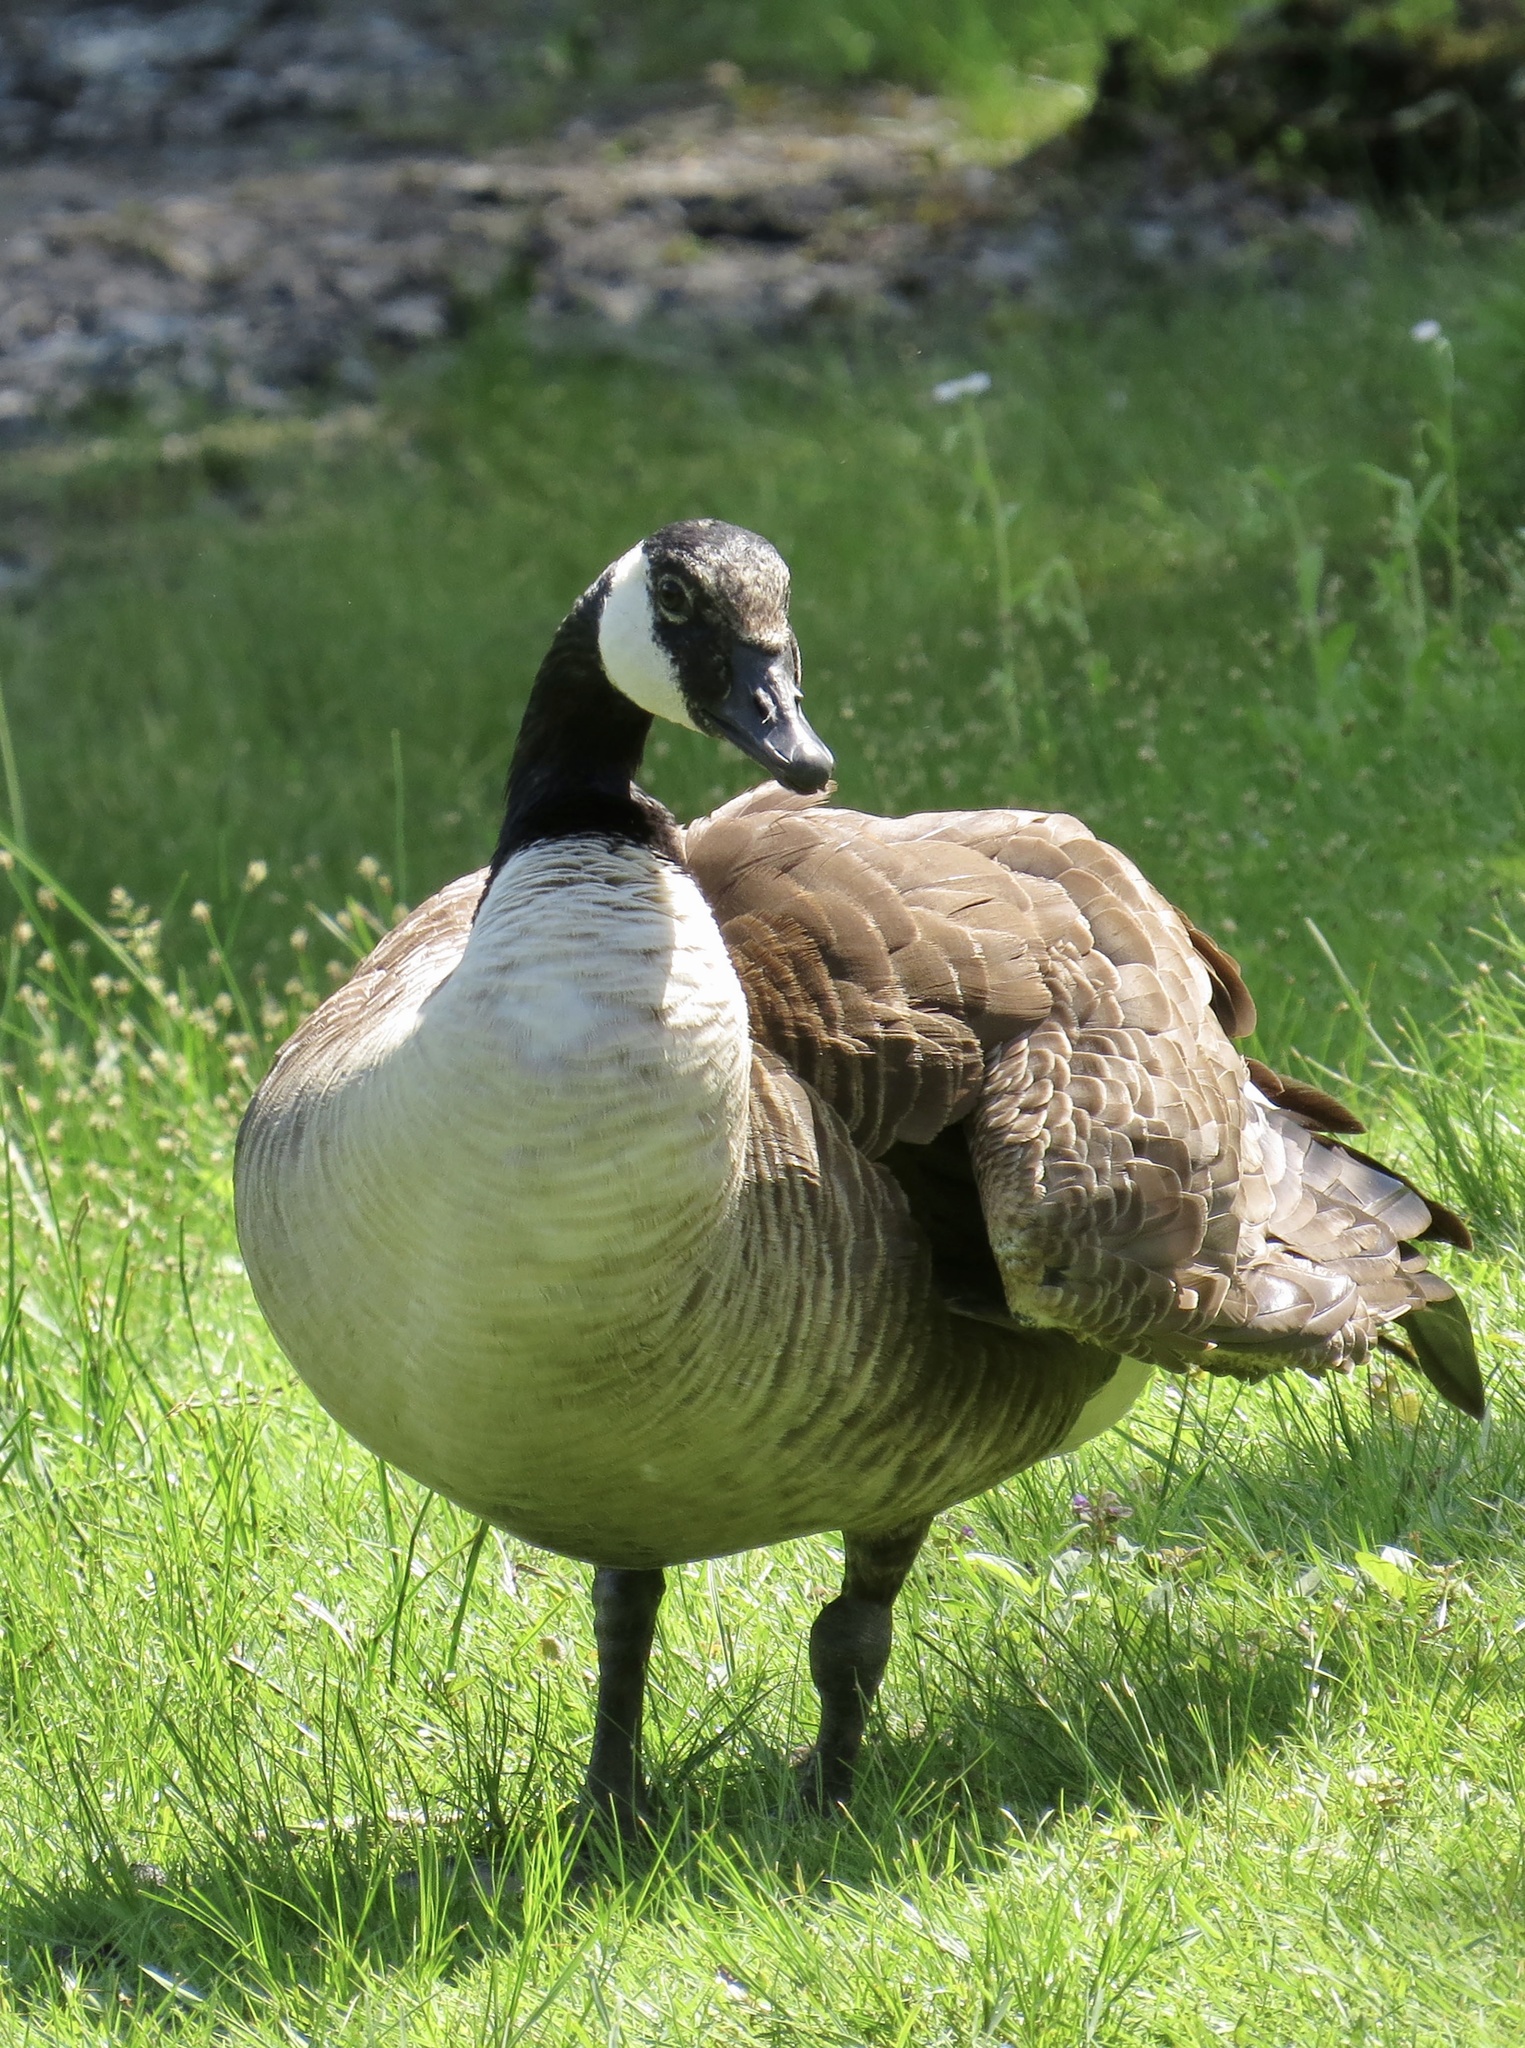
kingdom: Animalia
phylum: Chordata
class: Aves
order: Anseriformes
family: Anatidae
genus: Branta
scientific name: Branta canadensis
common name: Canada goose
